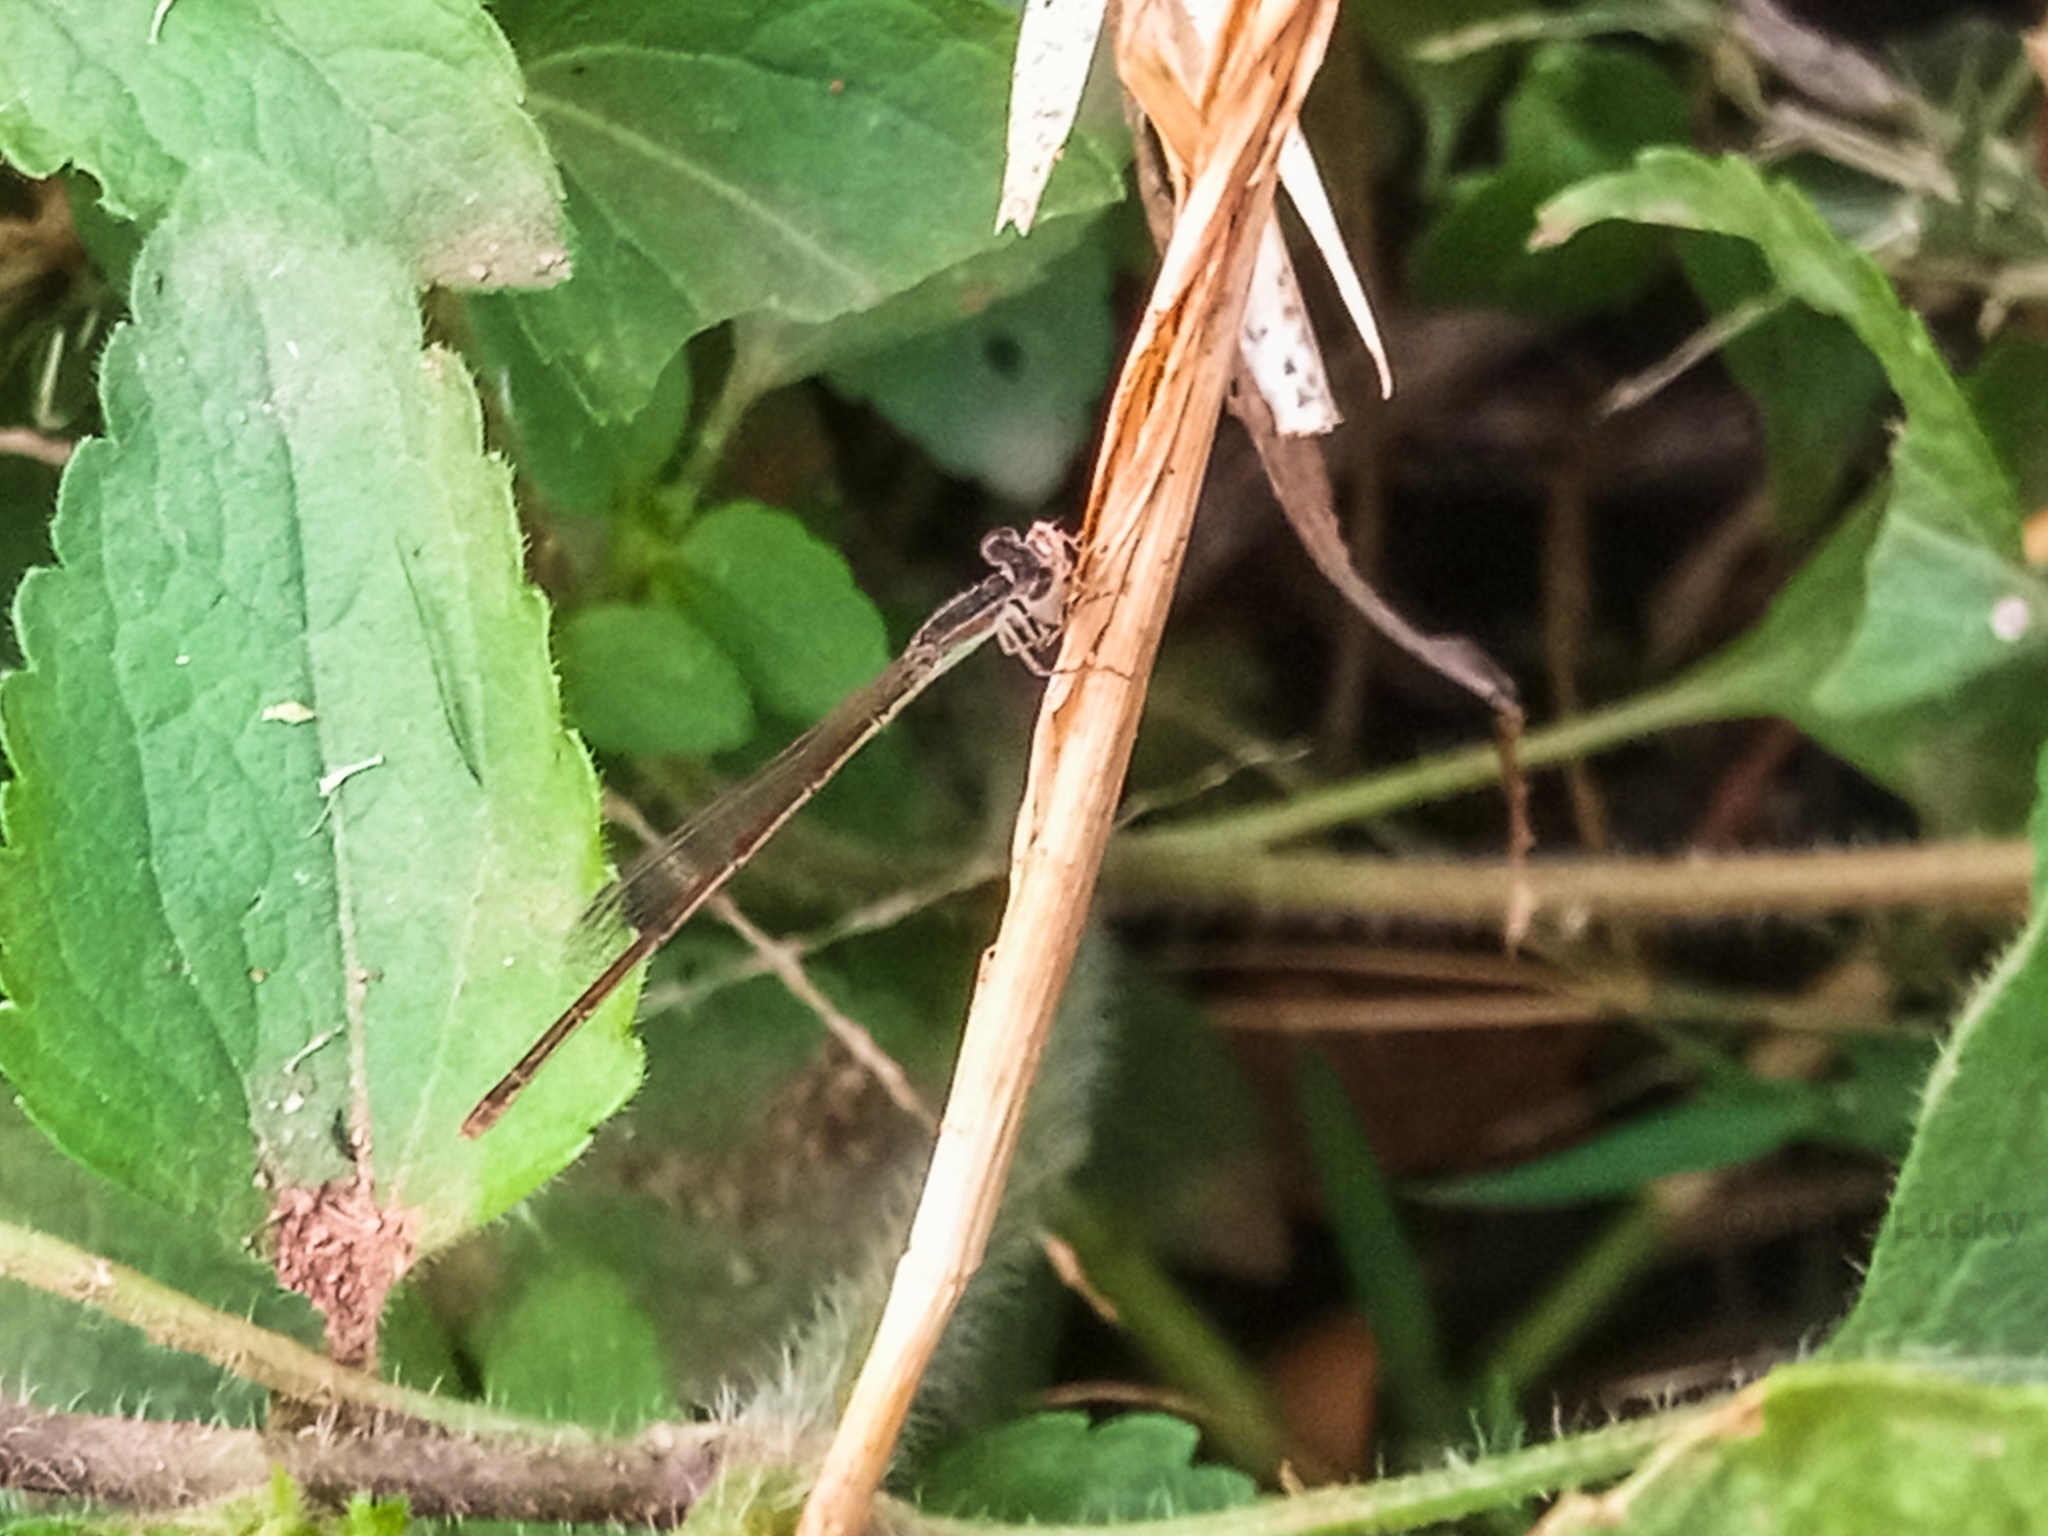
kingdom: Animalia
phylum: Arthropoda
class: Insecta
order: Odonata
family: Coenagrionidae
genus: Agriocnemis
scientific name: Agriocnemis exilis
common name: Little wisp
